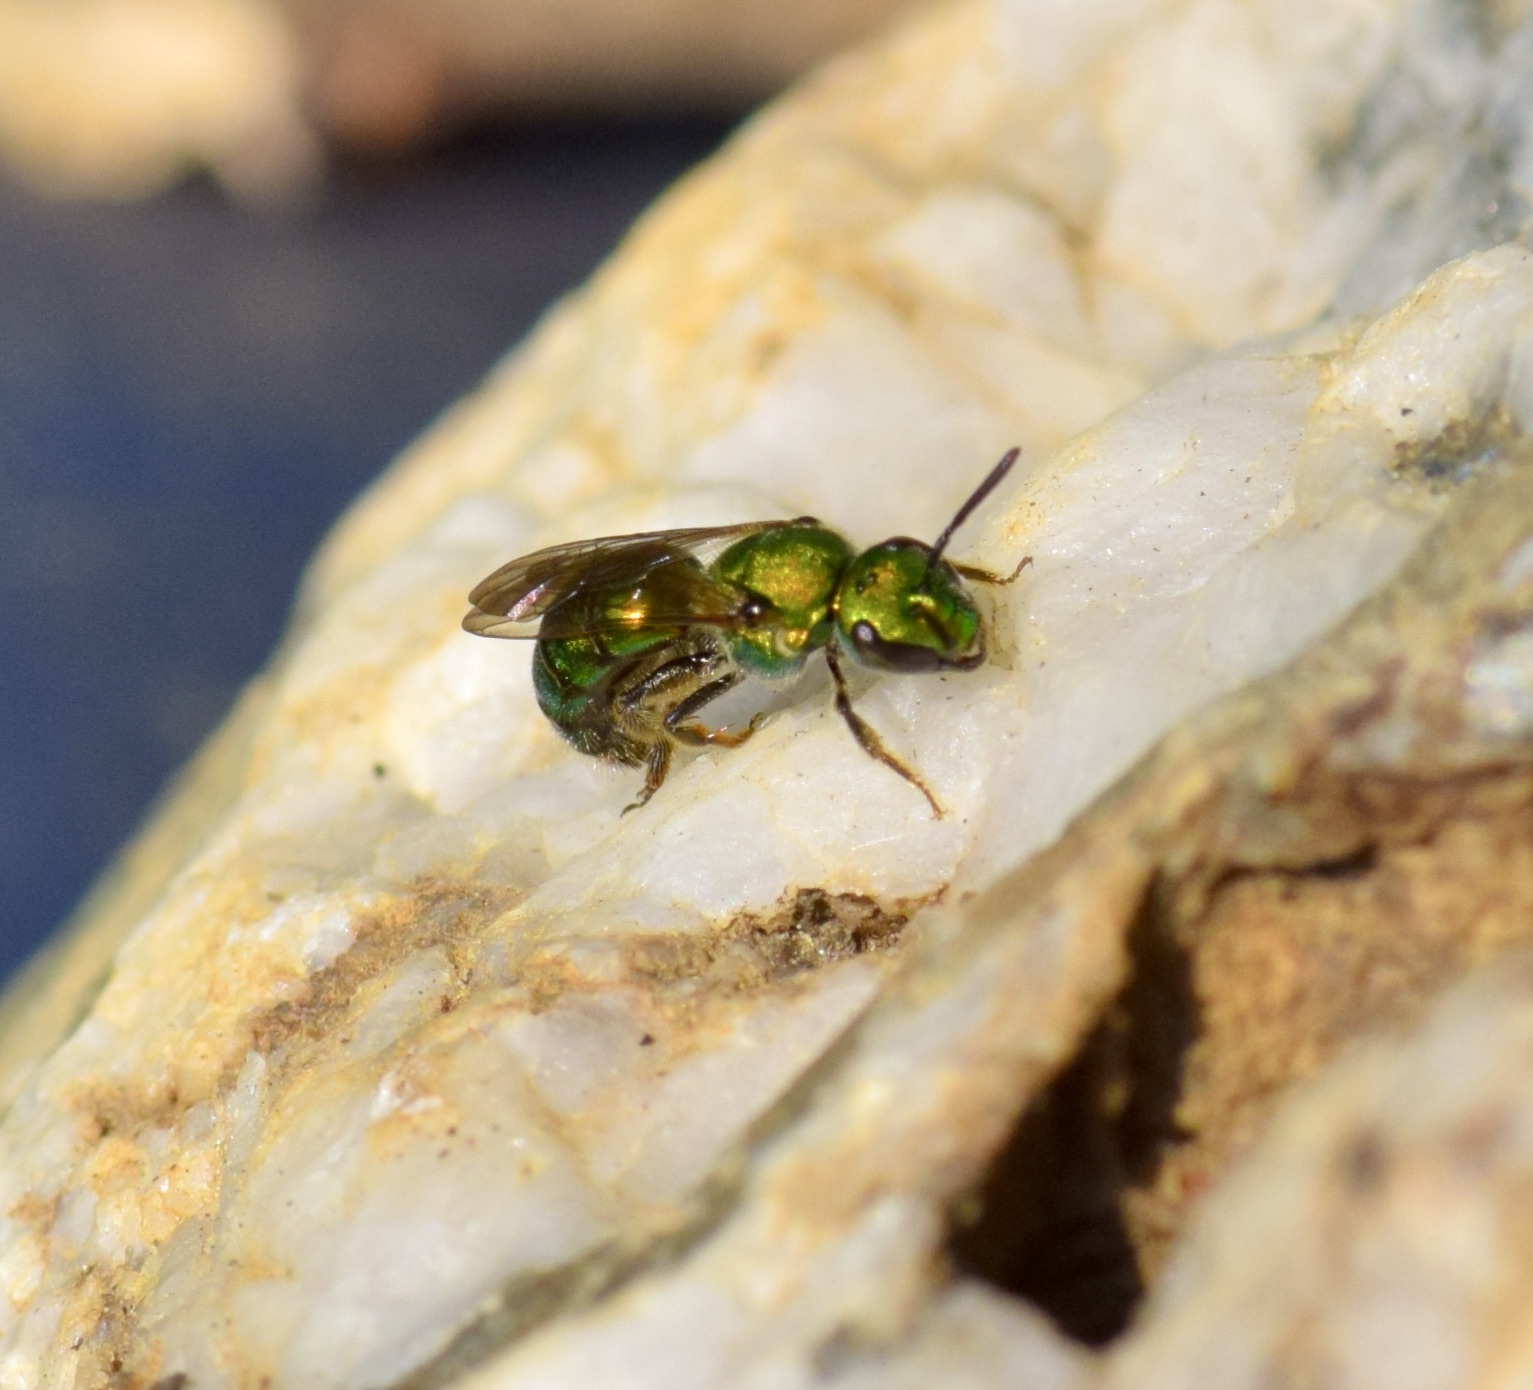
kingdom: Animalia
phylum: Arthropoda
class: Insecta
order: Hymenoptera
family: Halictidae
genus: Augochlora
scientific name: Augochlora pura
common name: Pure green sweat bee
